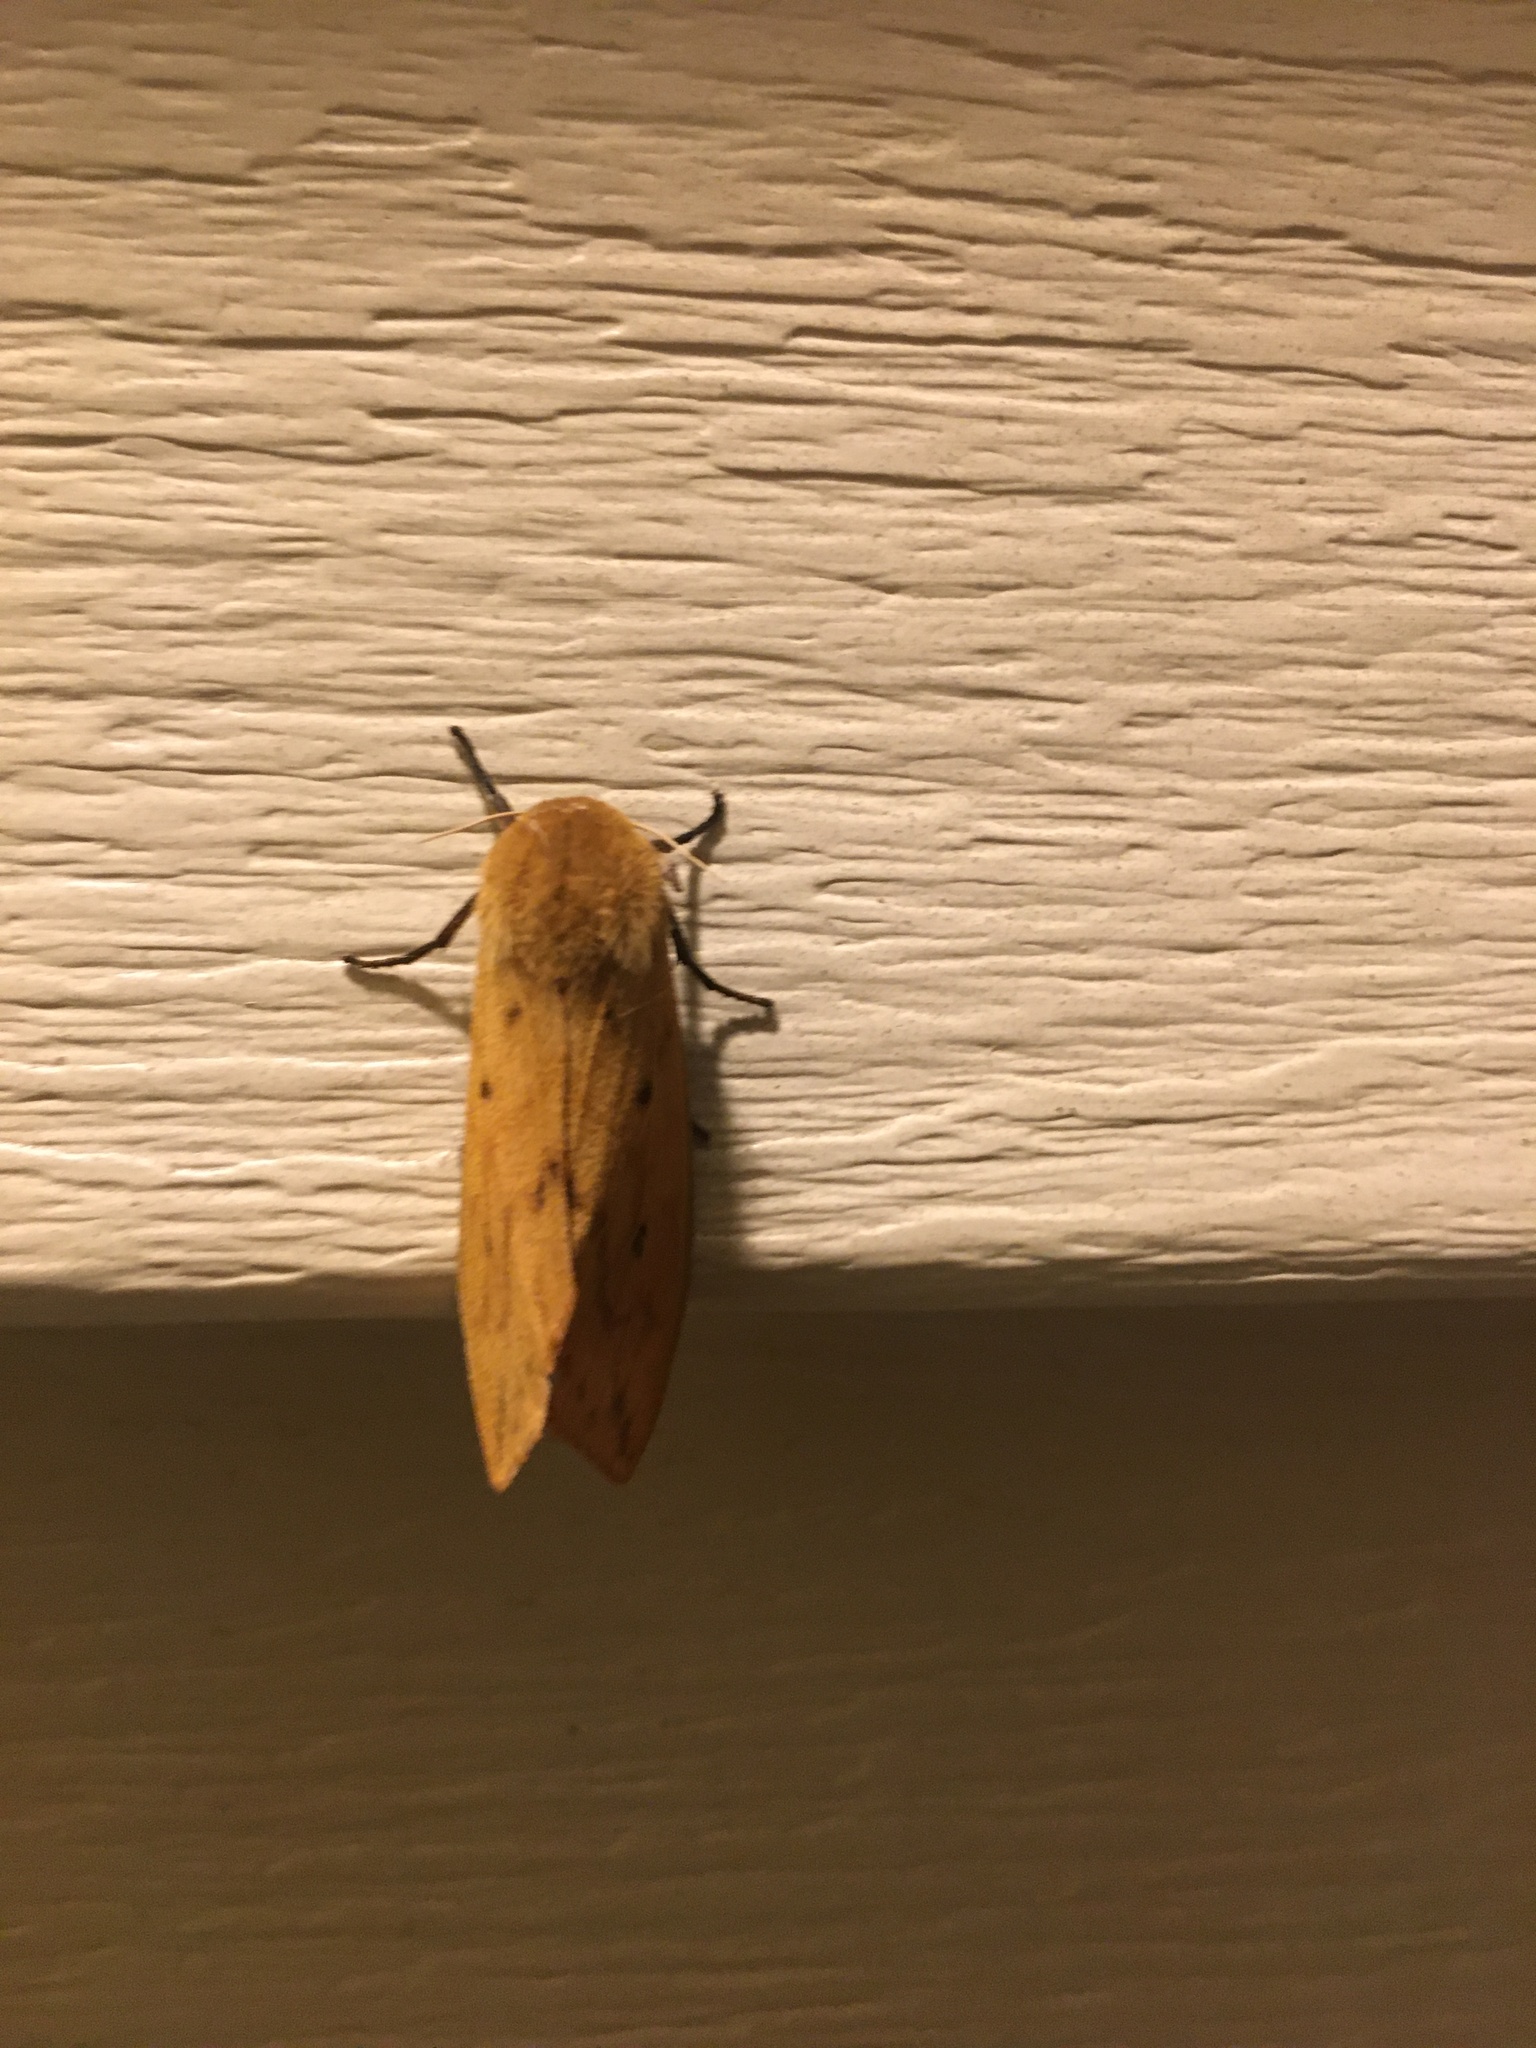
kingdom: Animalia
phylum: Arthropoda
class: Insecta
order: Lepidoptera
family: Erebidae
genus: Pyrrharctia
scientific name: Pyrrharctia isabella
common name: Isabella tiger moth
